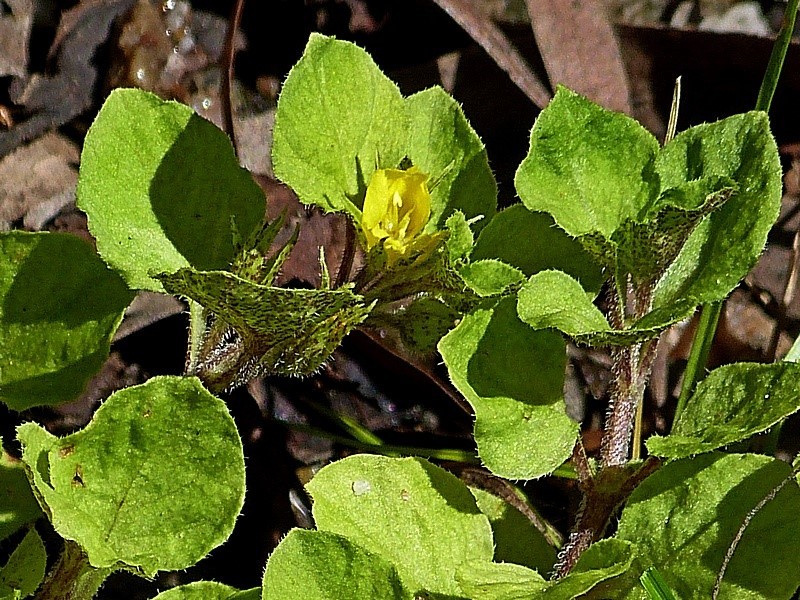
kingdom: Plantae
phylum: Tracheophyta
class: Magnoliopsida
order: Ericales
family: Primulaceae
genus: Lysimachia
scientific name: Lysimachia japonica
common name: Japanese yellow loosestrife
